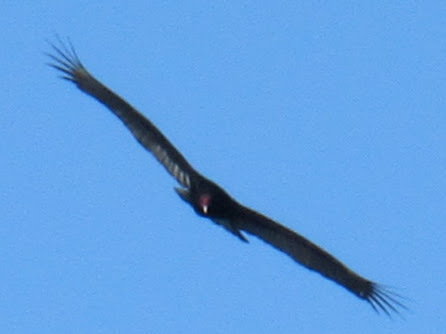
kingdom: Animalia
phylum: Chordata
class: Aves
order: Accipitriformes
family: Cathartidae
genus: Cathartes
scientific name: Cathartes aura
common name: Turkey vulture
